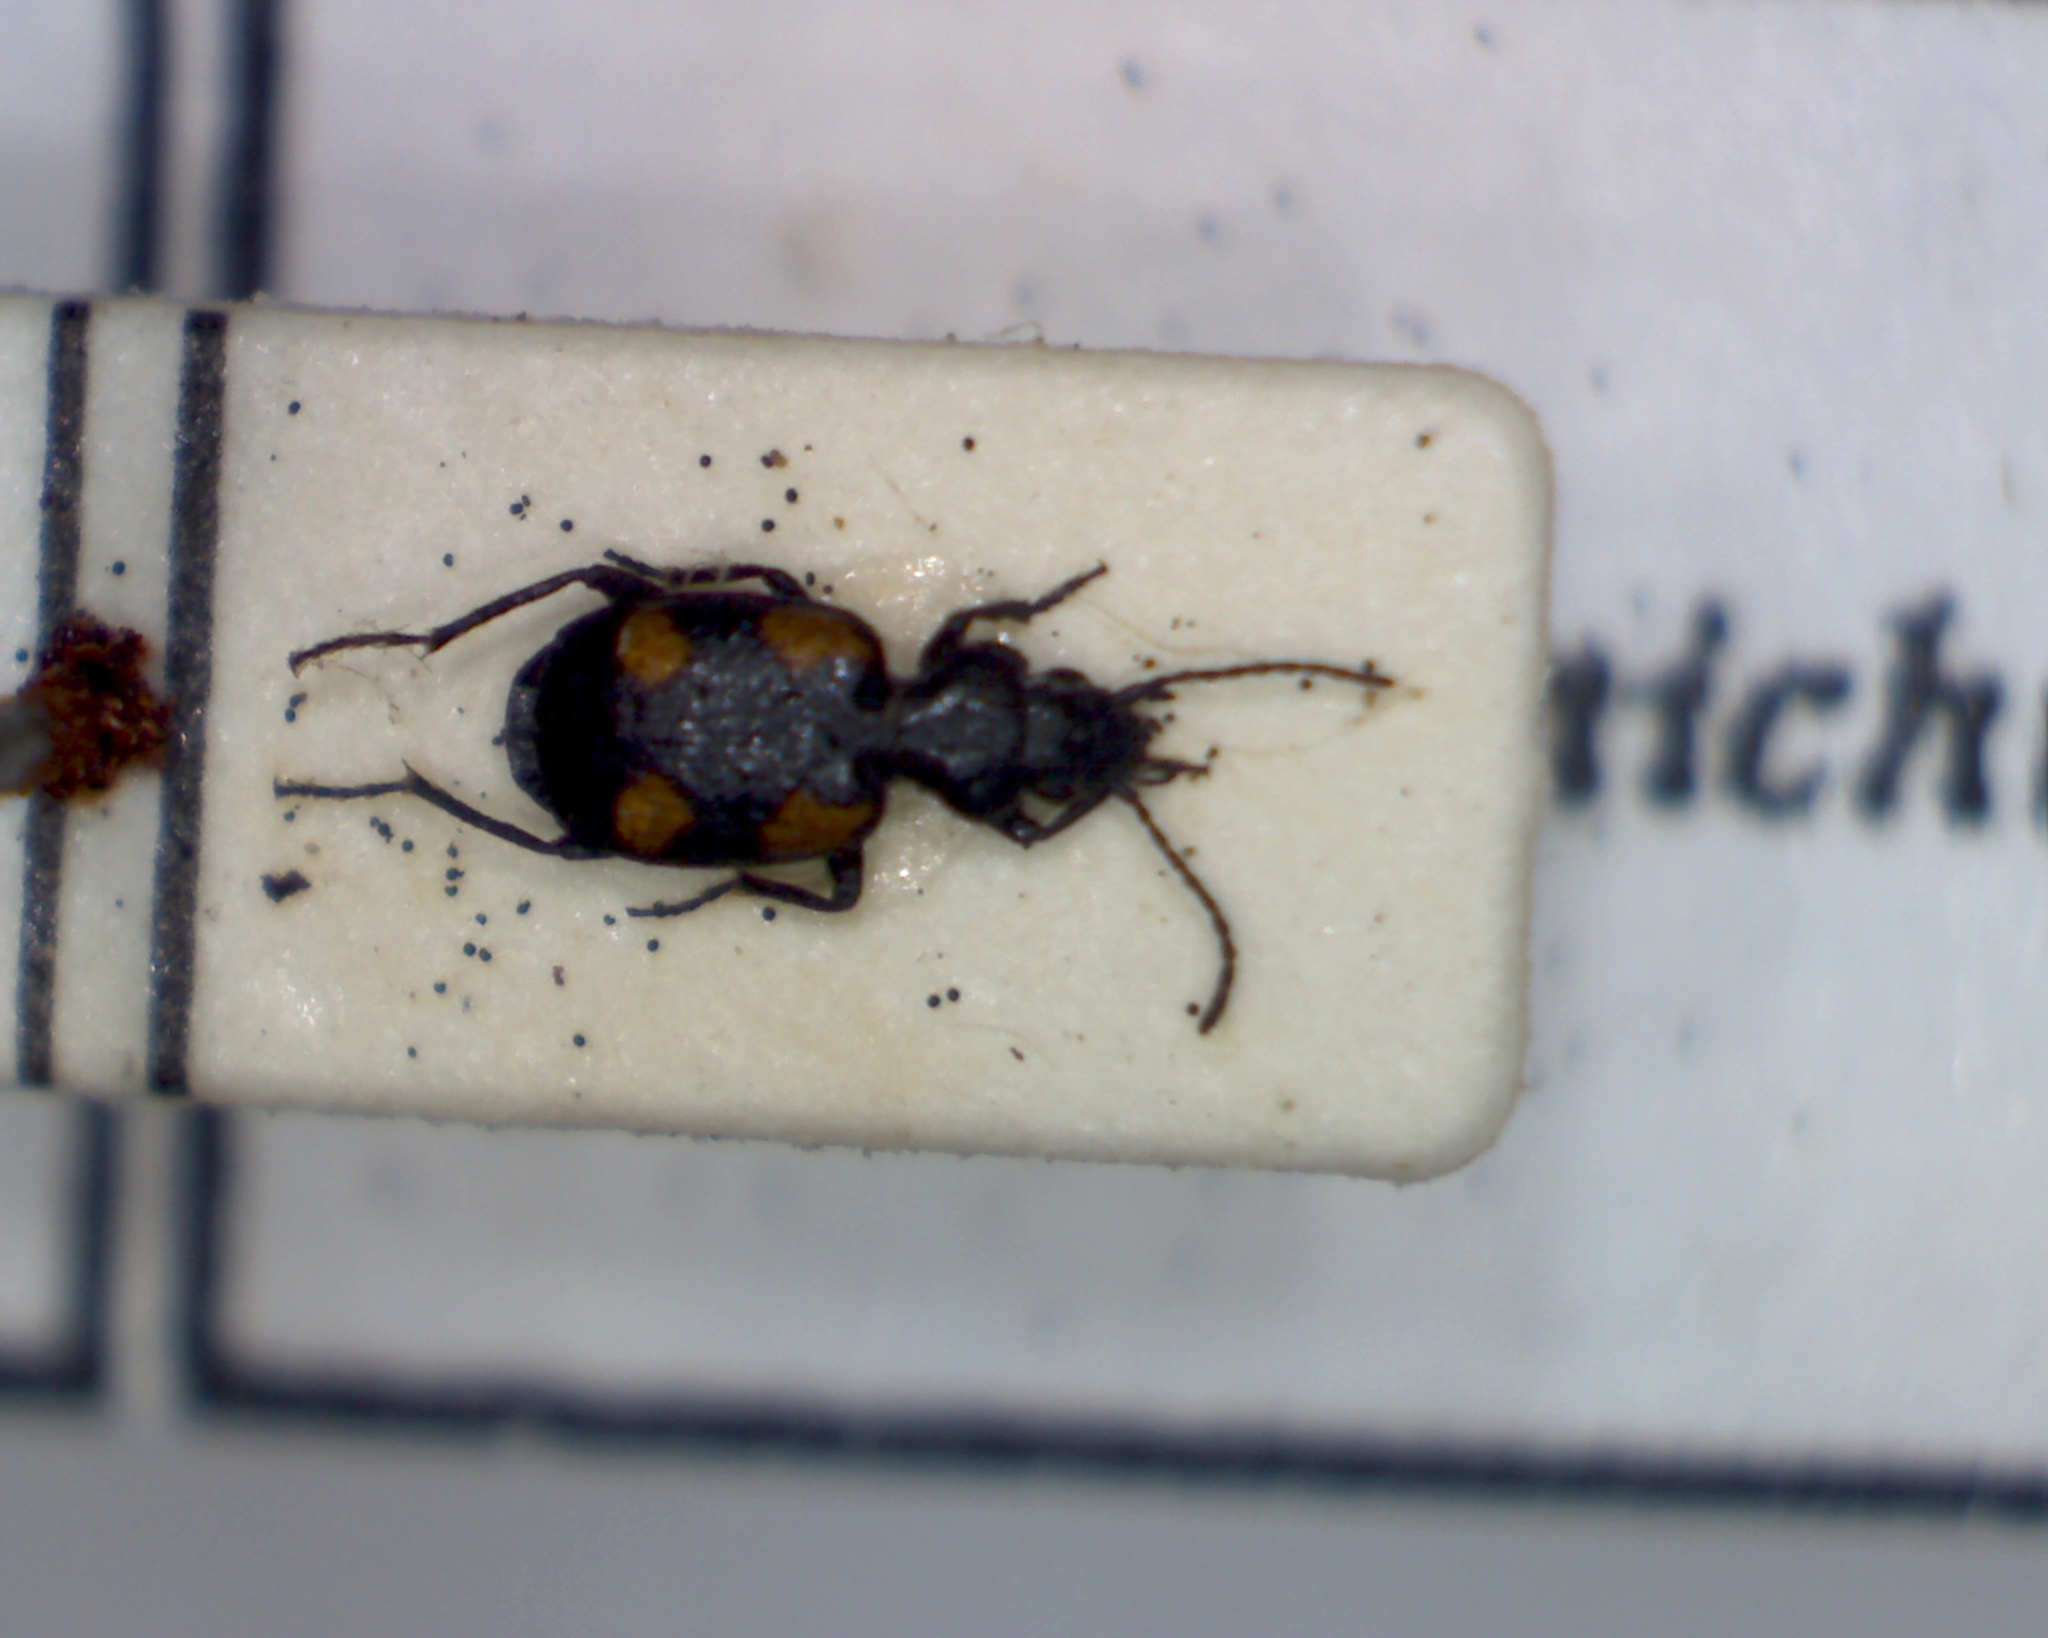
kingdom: Animalia
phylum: Arthropoda
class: Insecta
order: Coleoptera
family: Carabidae
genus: Lionychus
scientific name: Lionychus quadrillum
